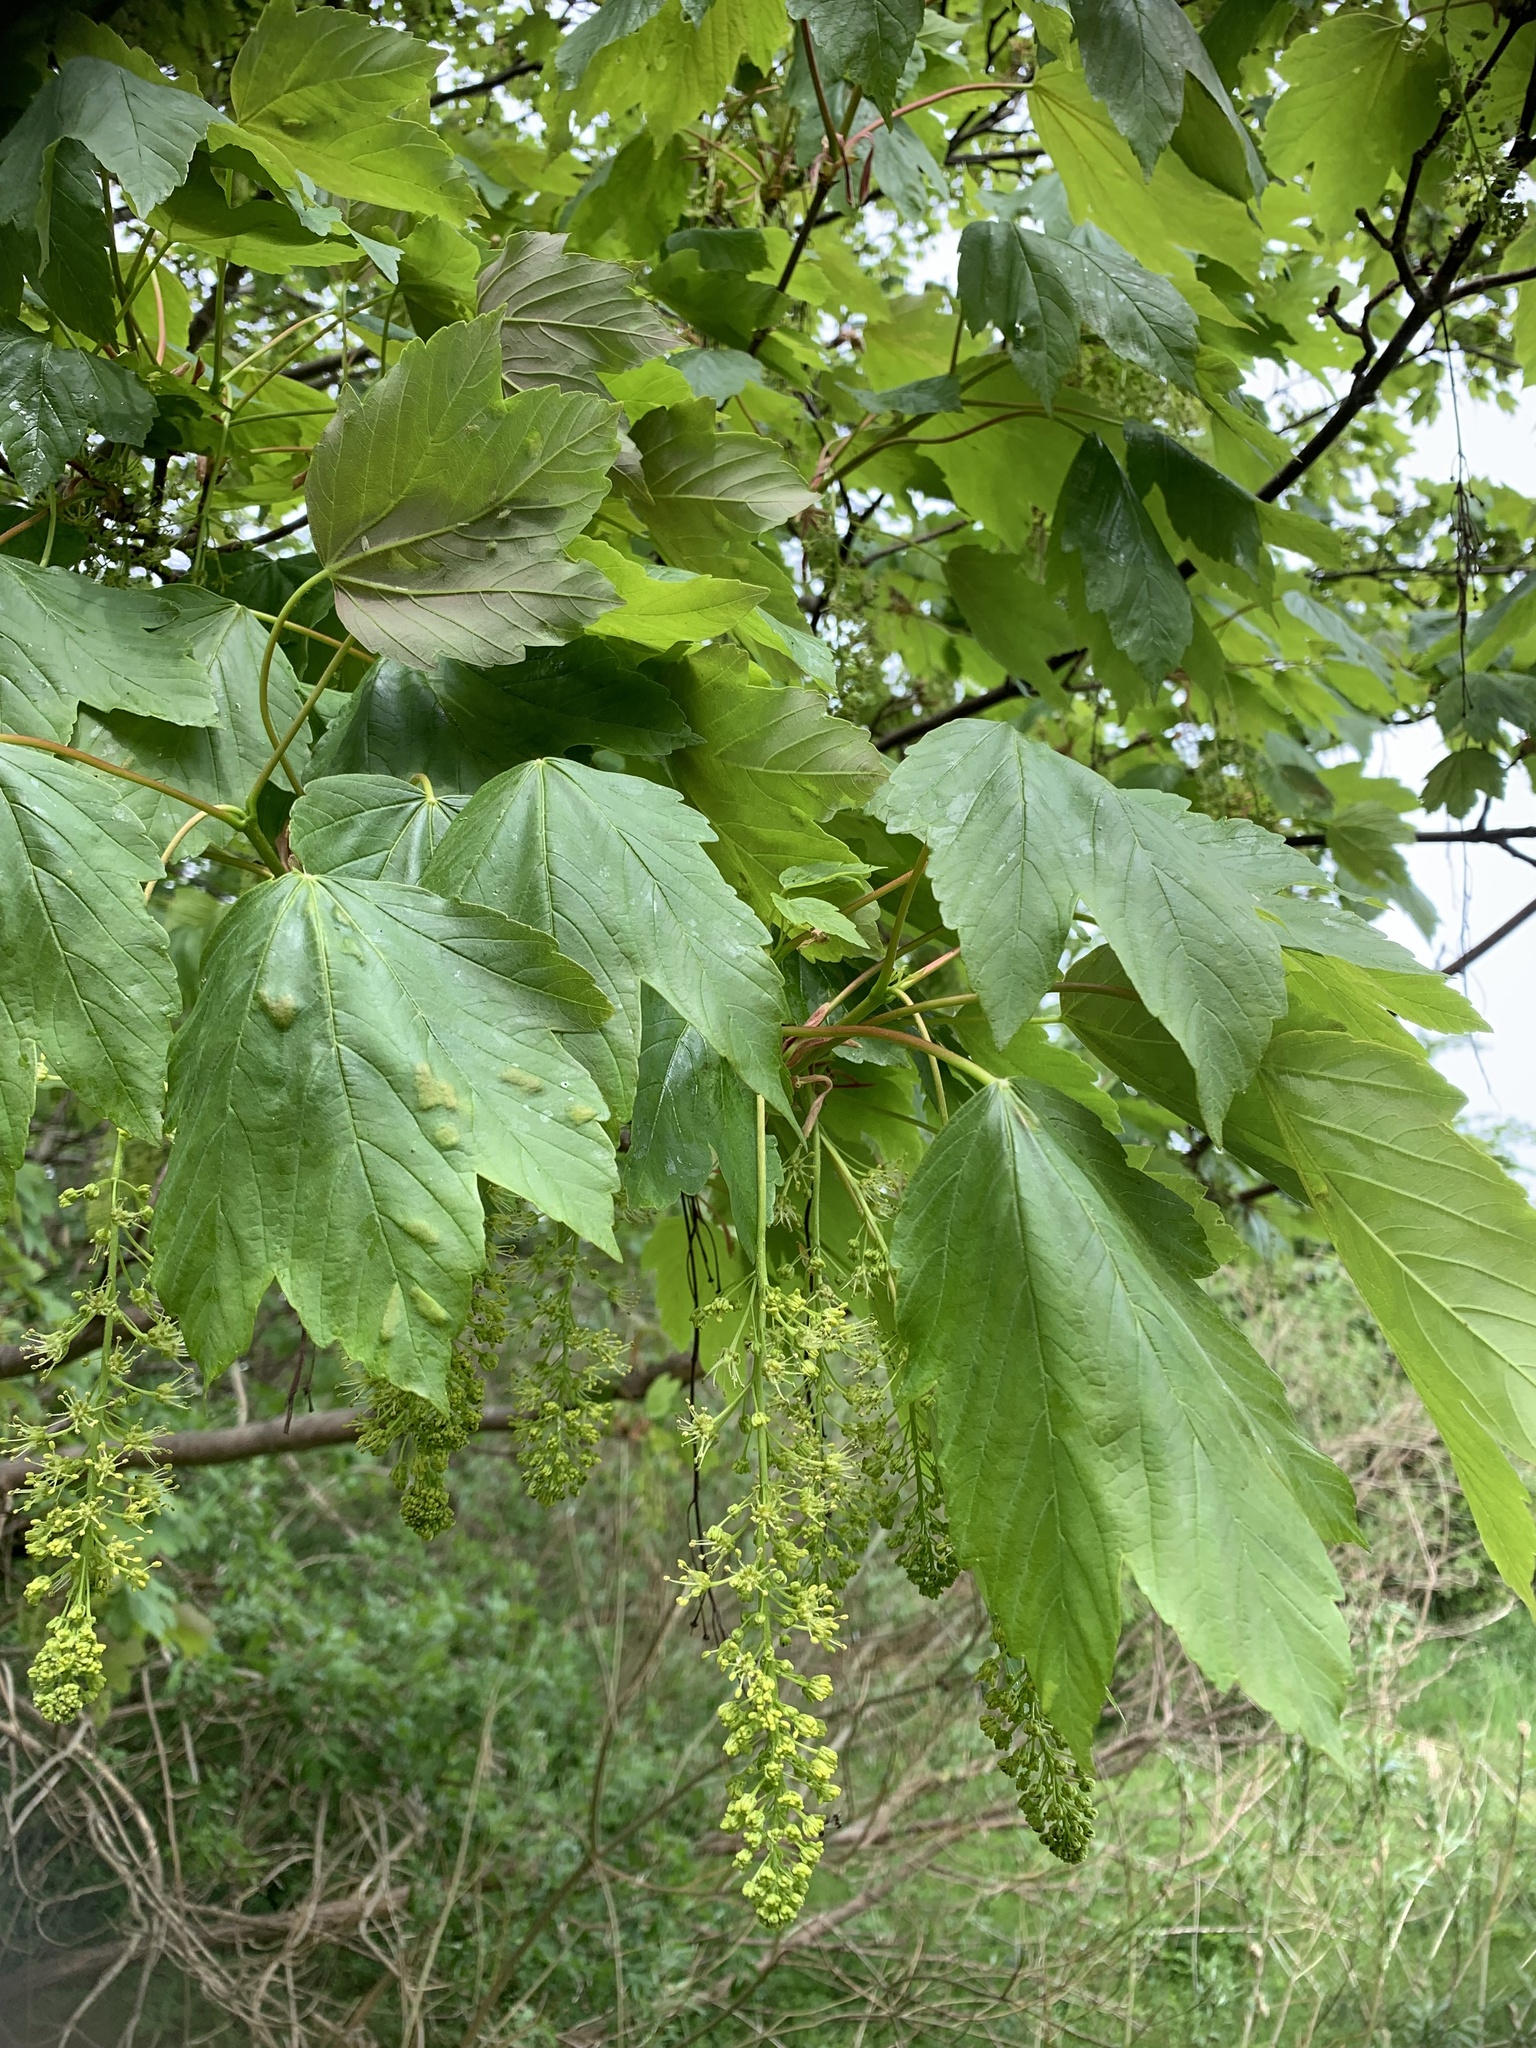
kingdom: Plantae
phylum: Tracheophyta
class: Magnoliopsida
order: Sapindales
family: Sapindaceae
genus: Acer
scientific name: Acer pseudoplatanus
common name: Sycamore
